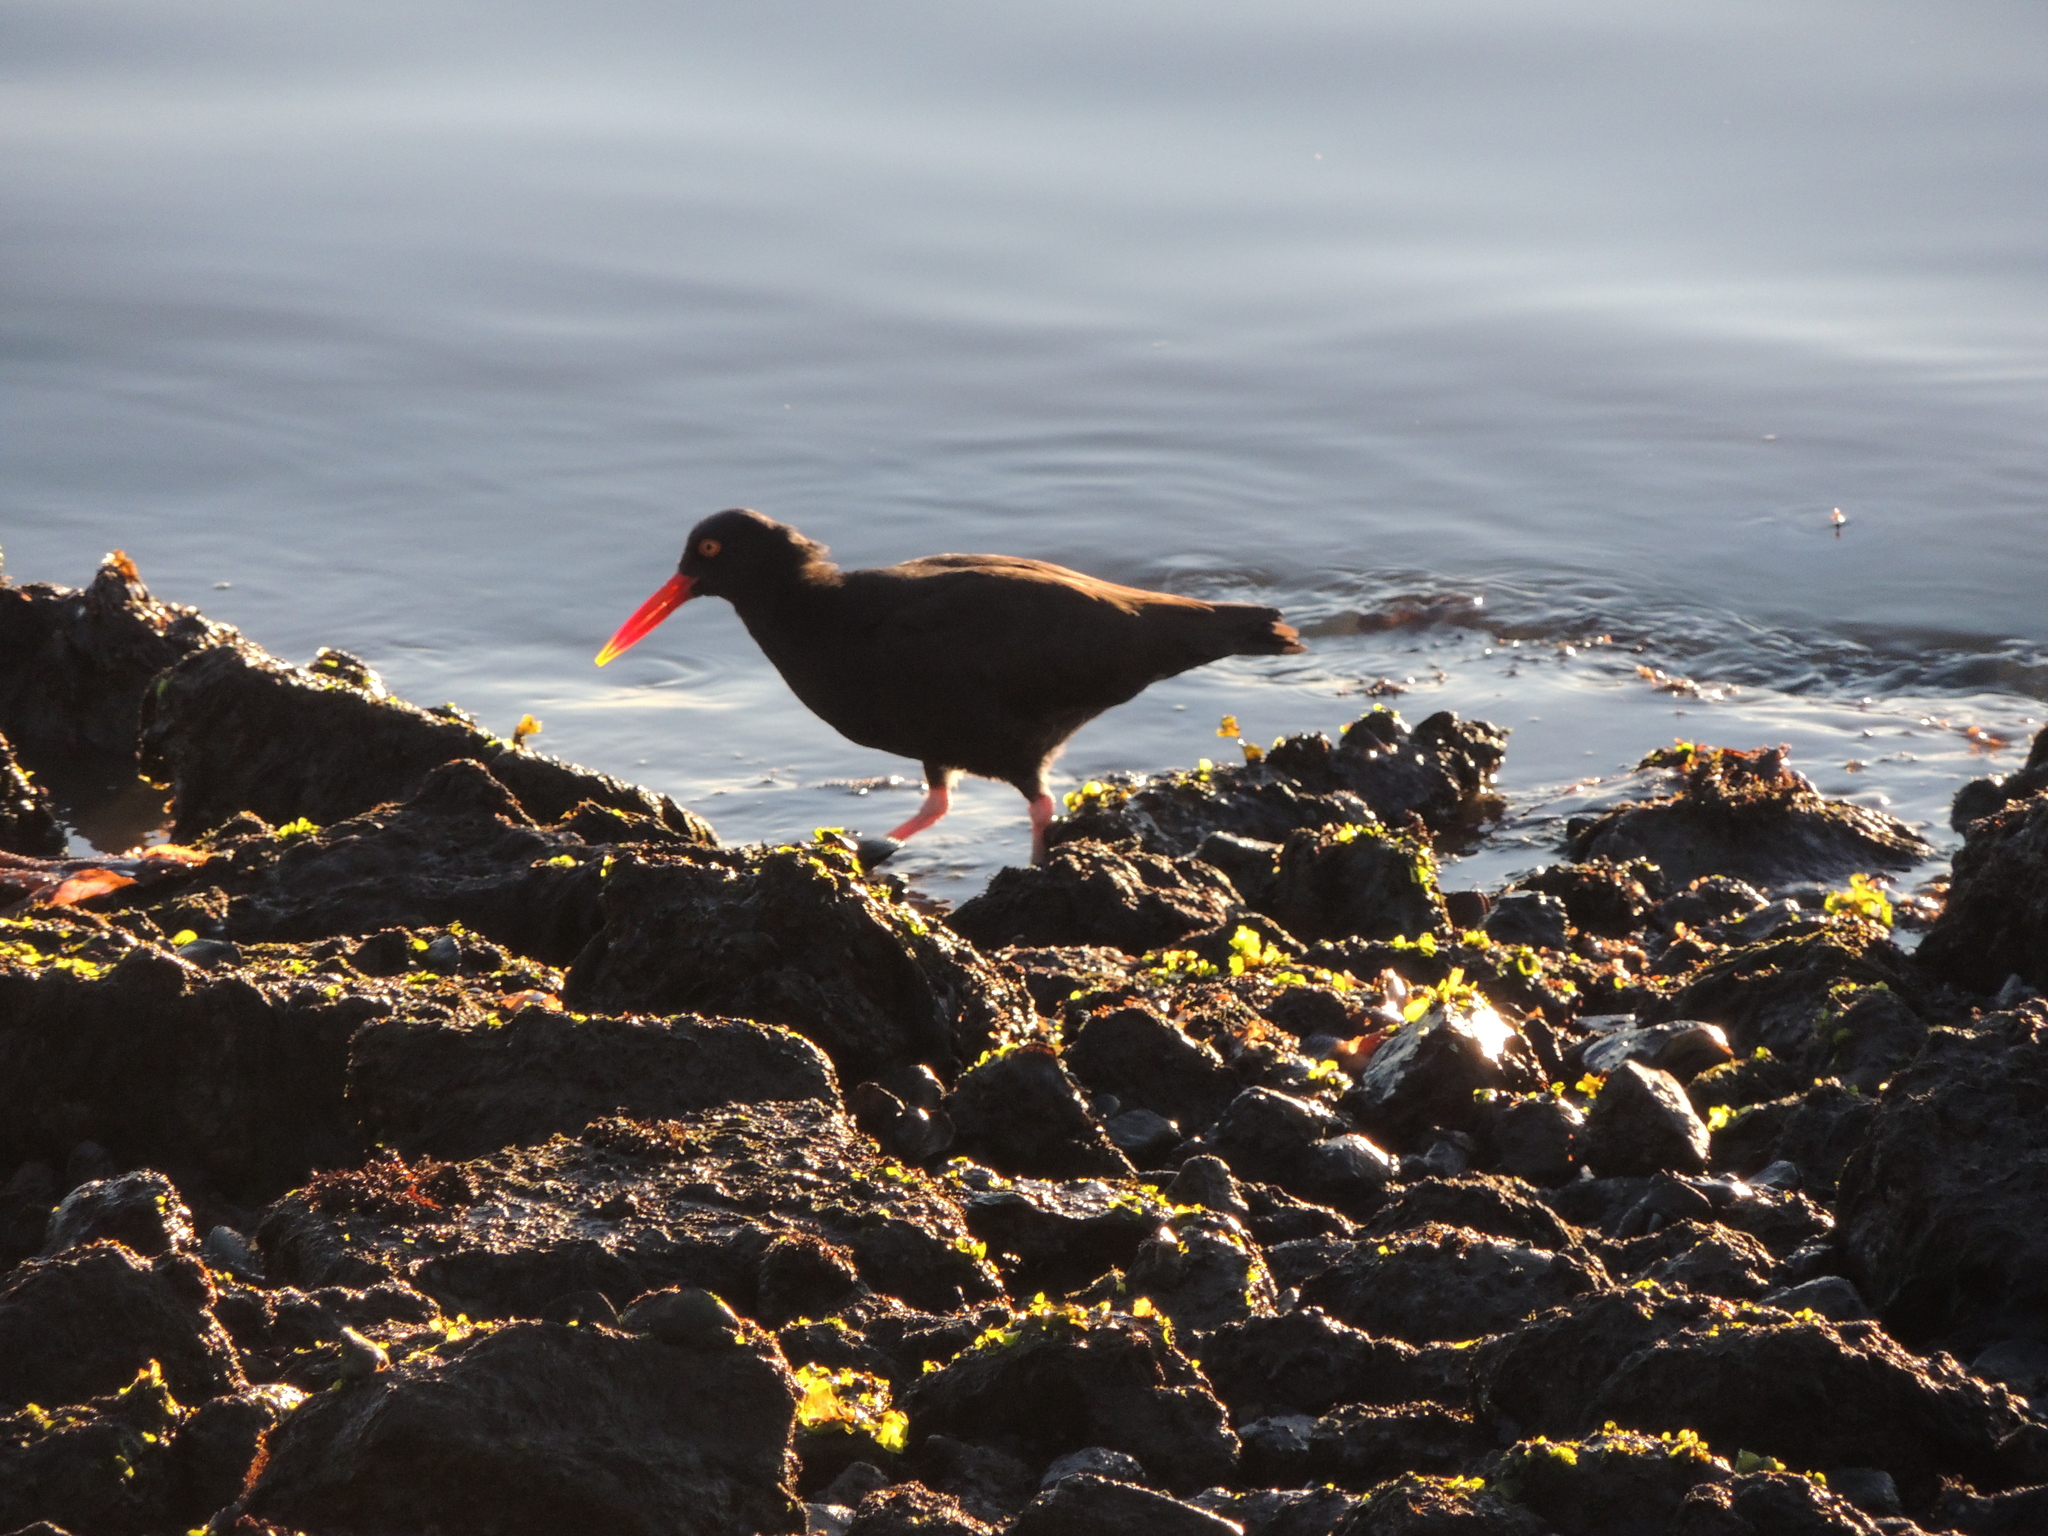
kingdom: Animalia
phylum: Chordata
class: Aves
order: Charadriiformes
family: Haematopodidae
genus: Haematopus
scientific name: Haematopus bachmani
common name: Black oystercatcher
